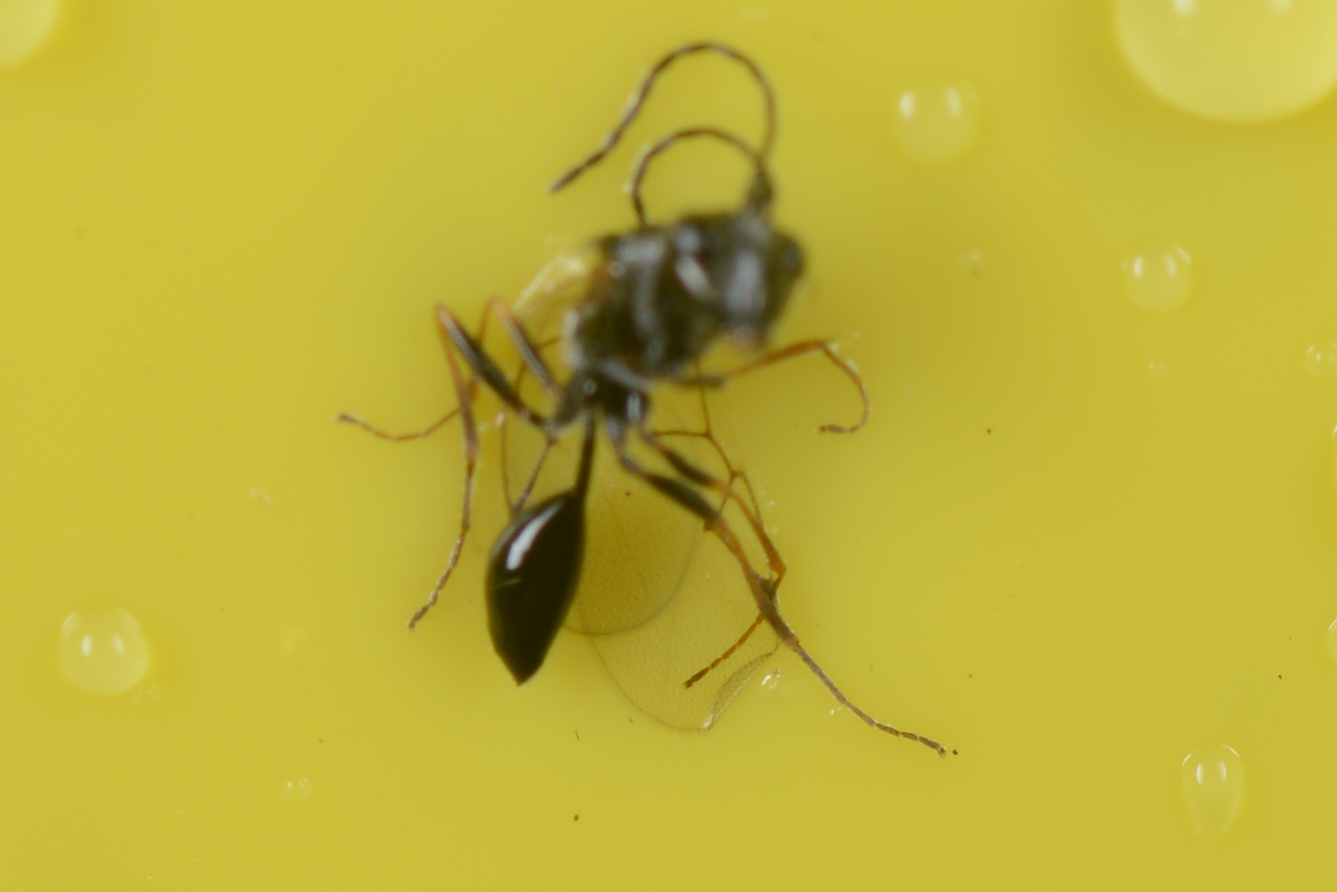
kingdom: Animalia
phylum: Arthropoda
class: Insecta
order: Hymenoptera
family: Figitidae
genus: Anacharis
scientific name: Anacharis zealandica
